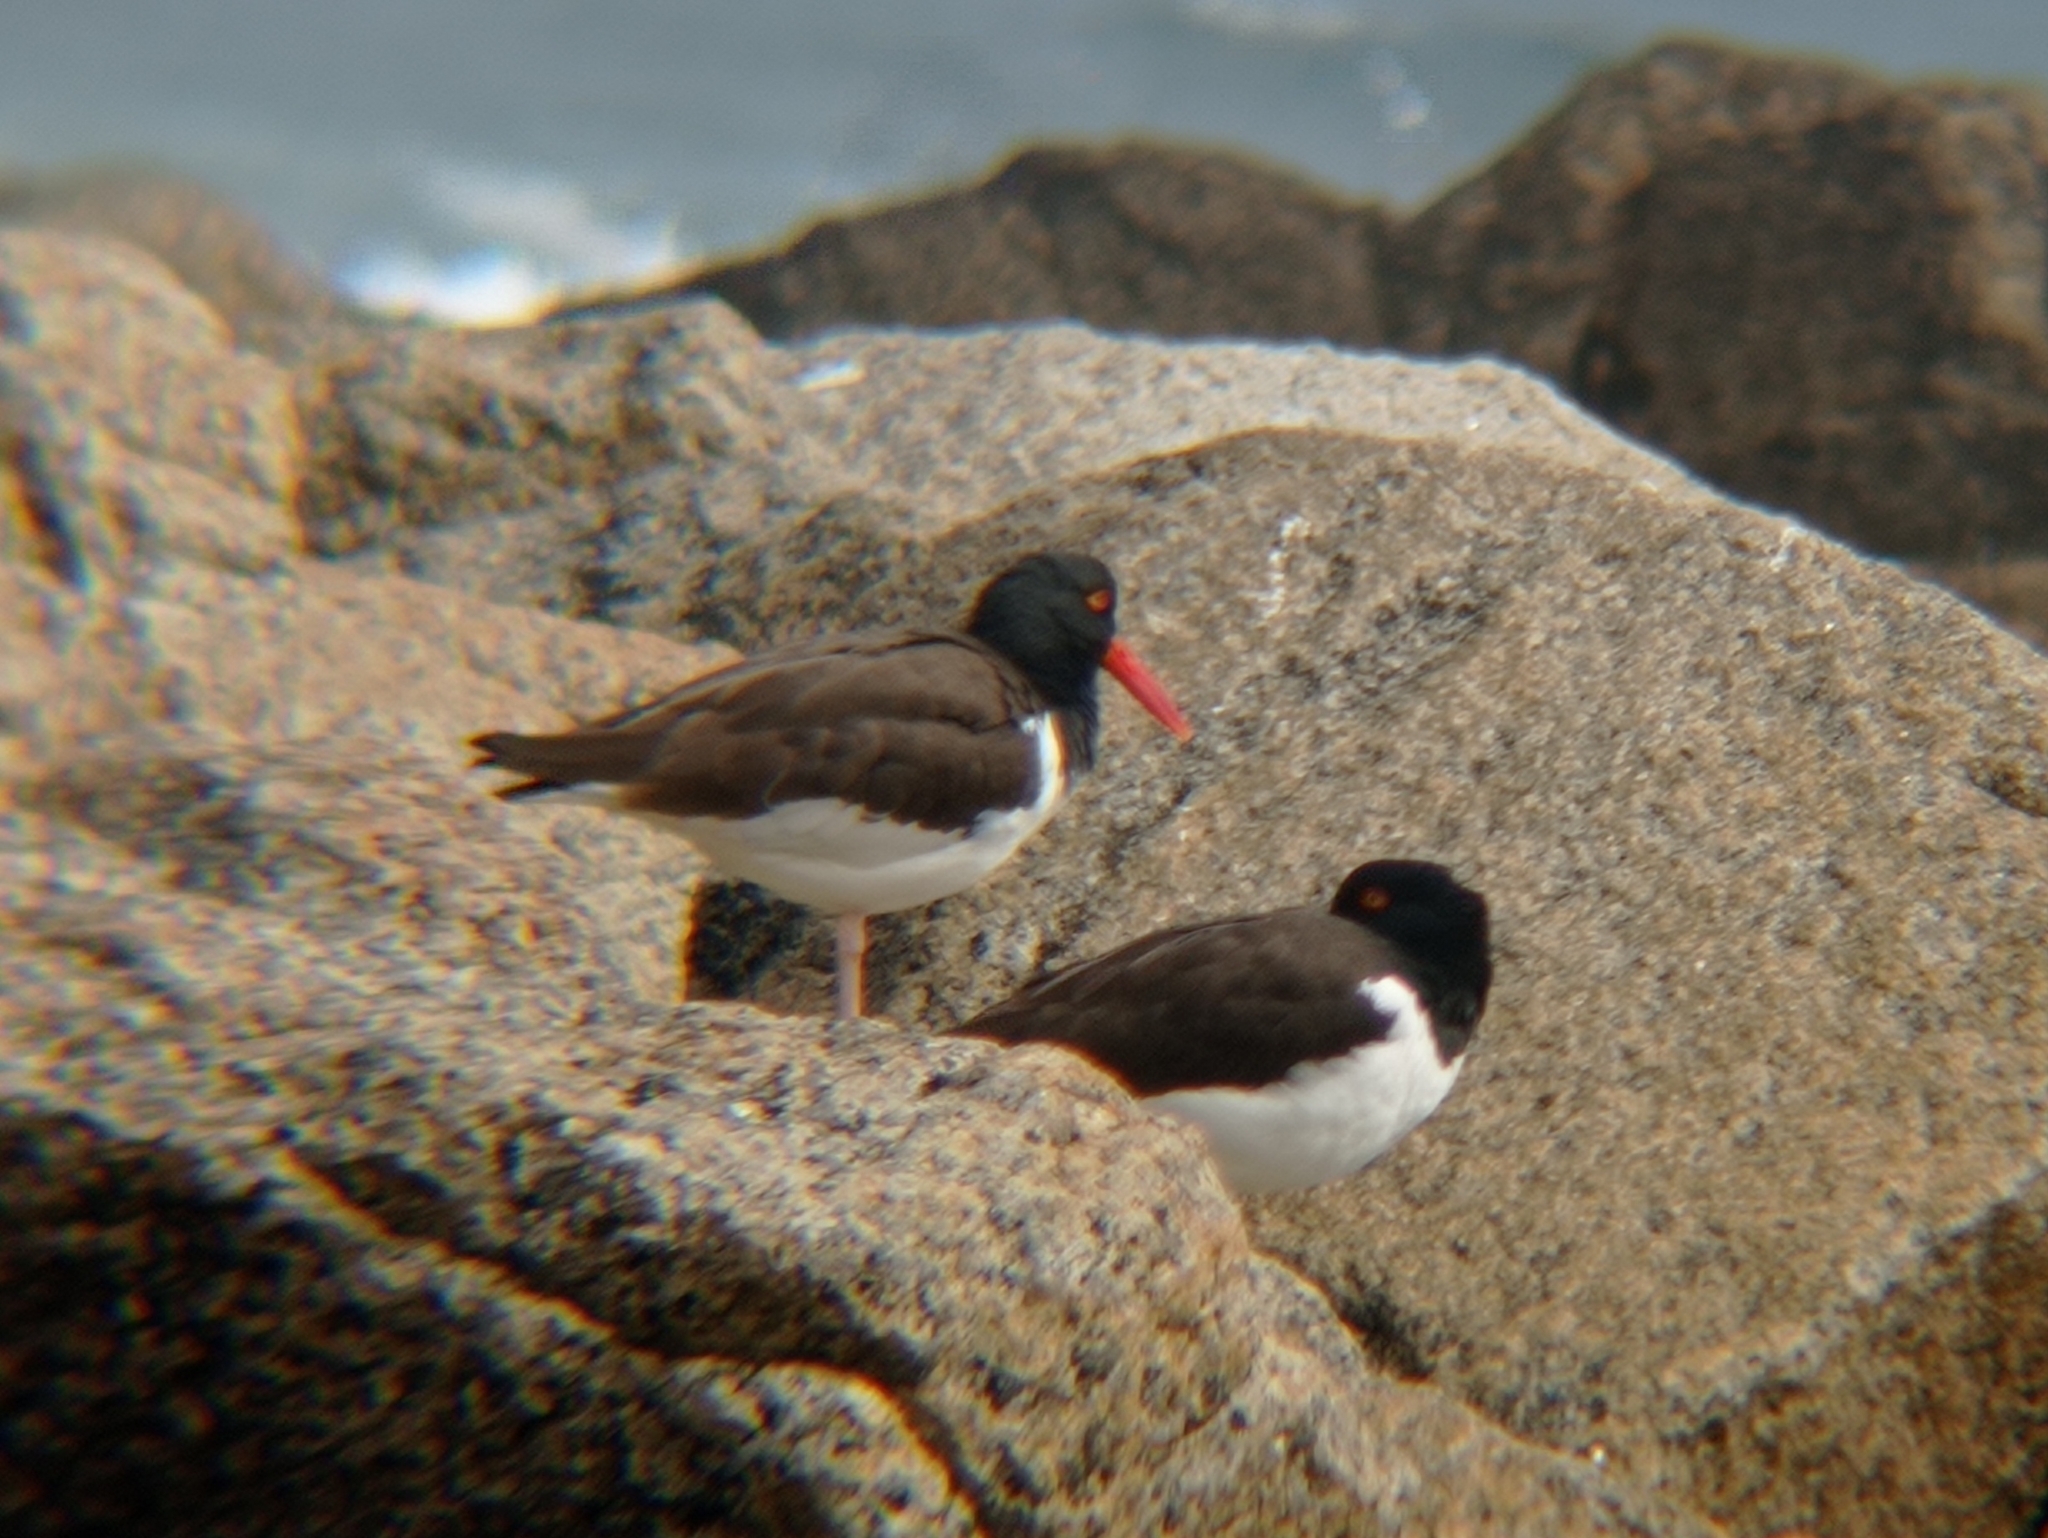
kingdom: Animalia
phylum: Chordata
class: Aves
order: Charadriiformes
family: Haematopodidae
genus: Haematopus
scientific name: Haematopus palliatus
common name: American oystercatcher
